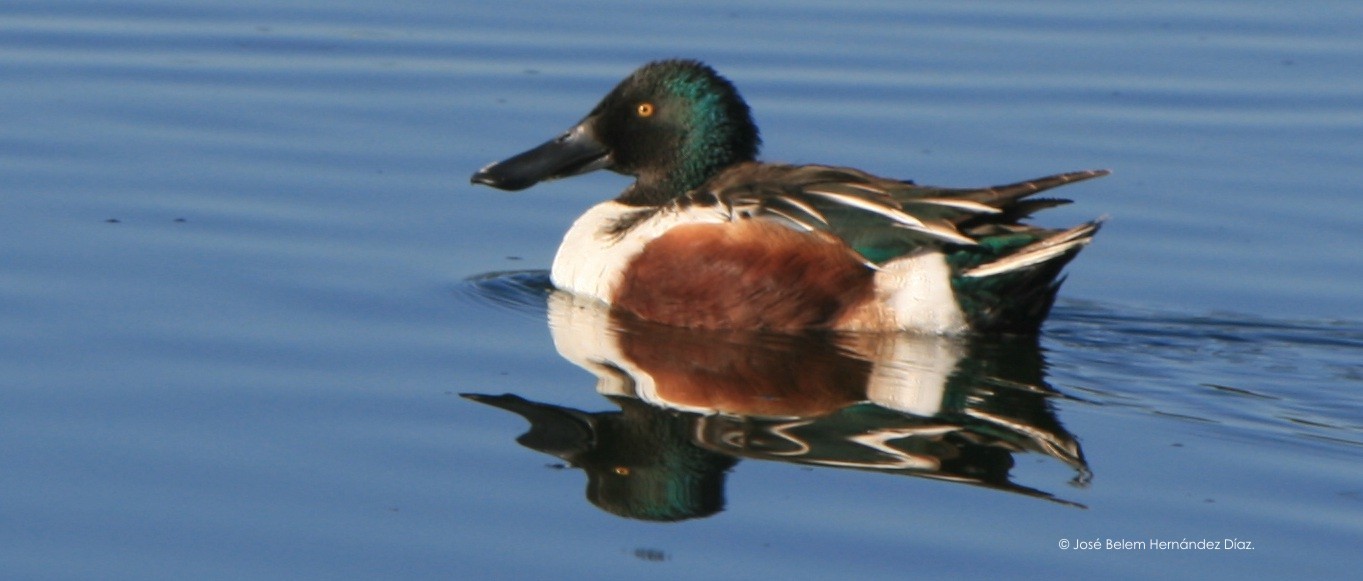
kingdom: Animalia
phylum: Chordata
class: Aves
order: Anseriformes
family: Anatidae
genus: Spatula
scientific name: Spatula clypeata
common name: Northern shoveler
